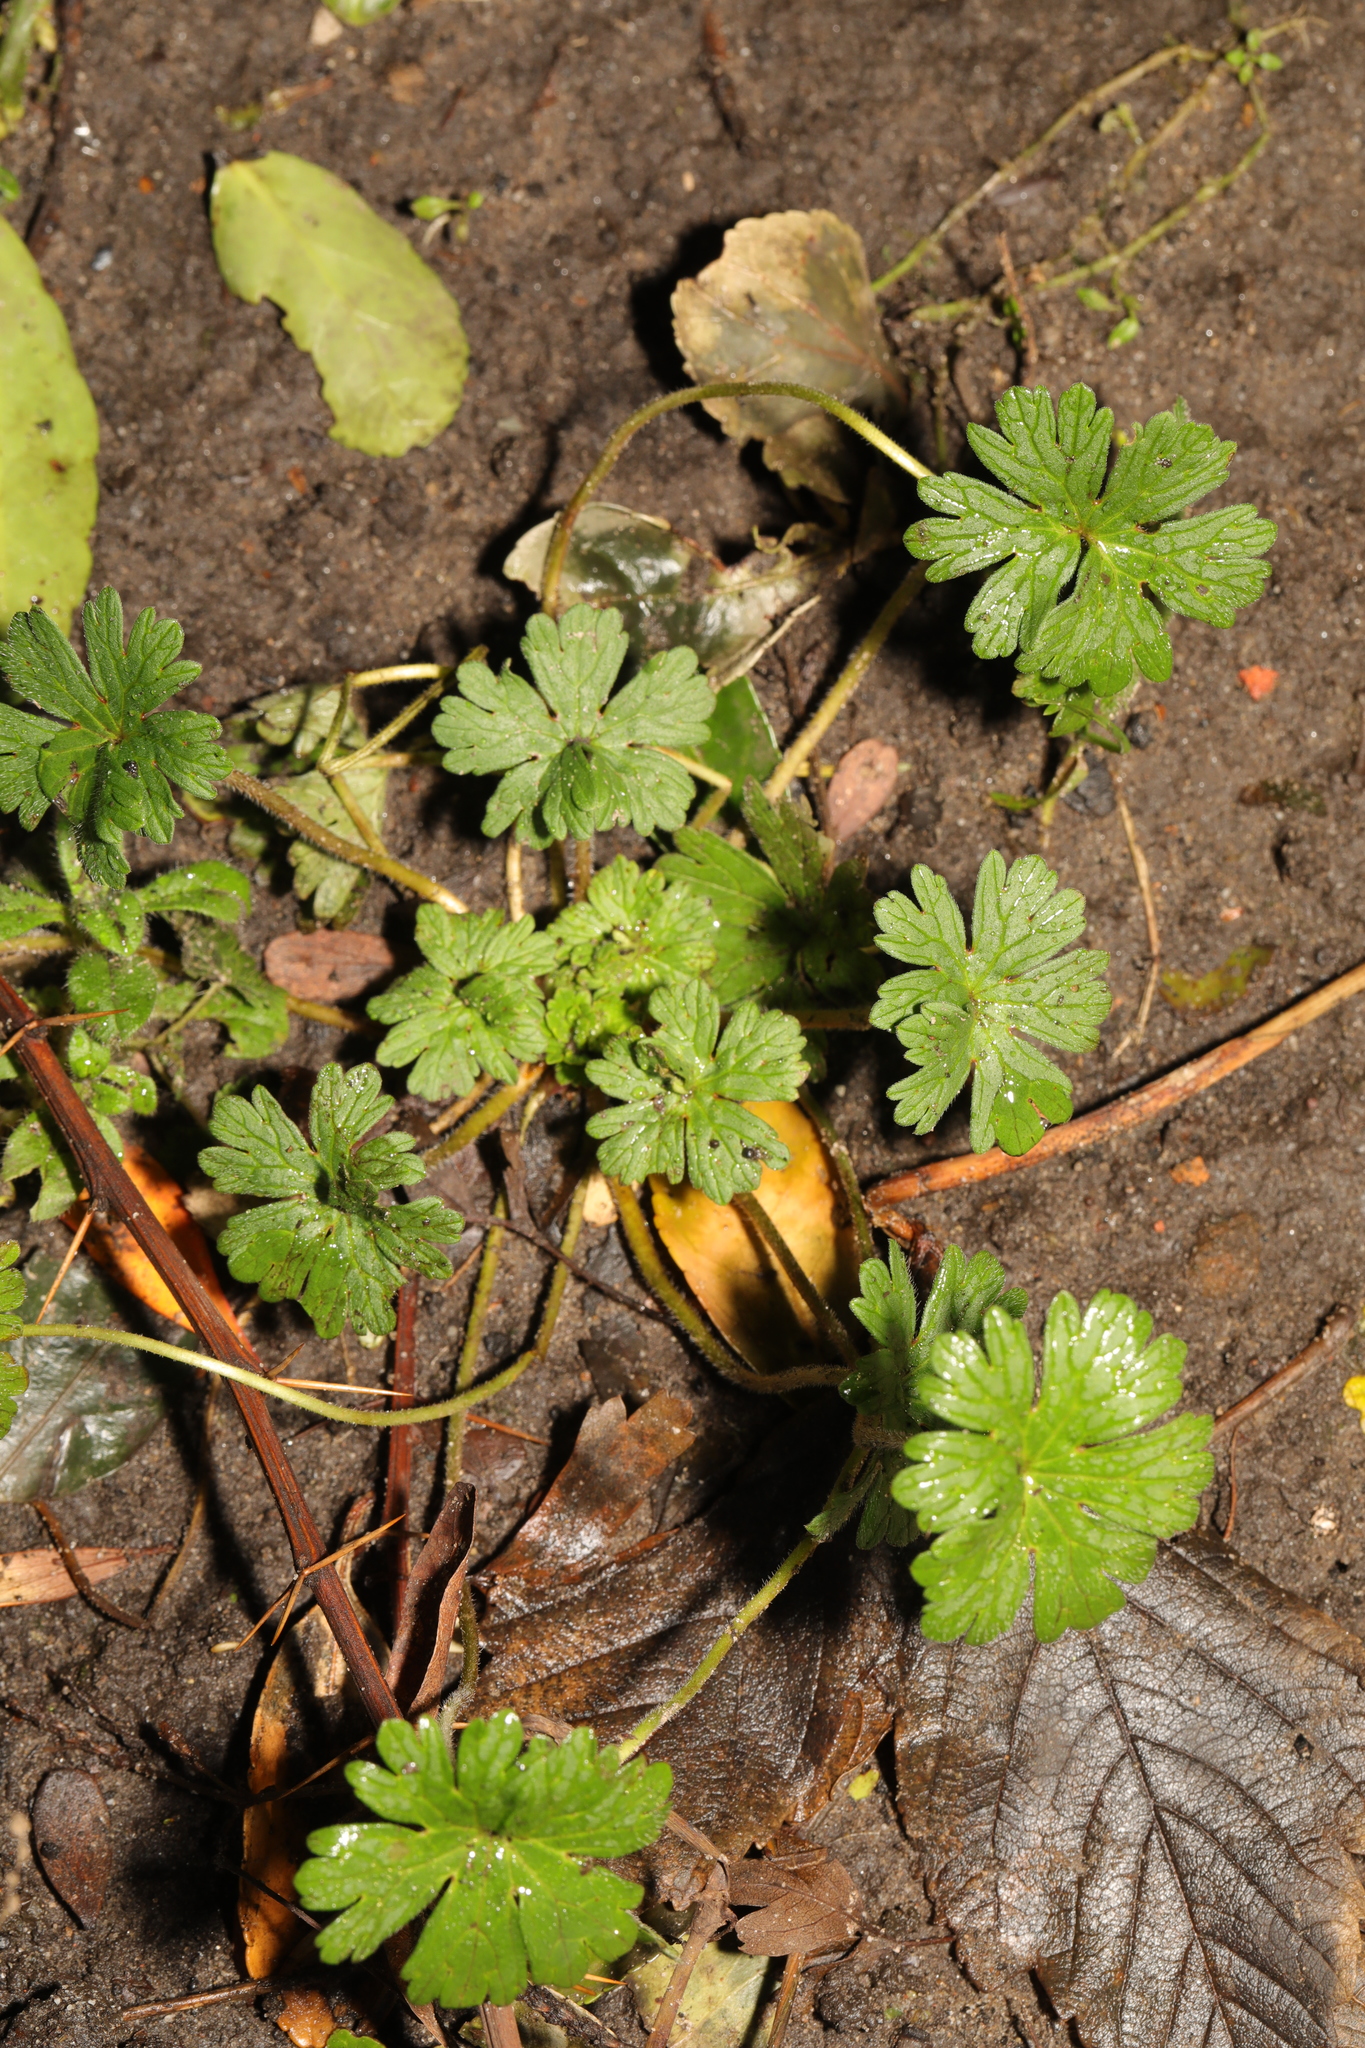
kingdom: Plantae
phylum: Tracheophyta
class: Magnoliopsida
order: Geraniales
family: Geraniaceae
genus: Geranium
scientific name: Geranium molle
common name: Dove's-foot crane's-bill
